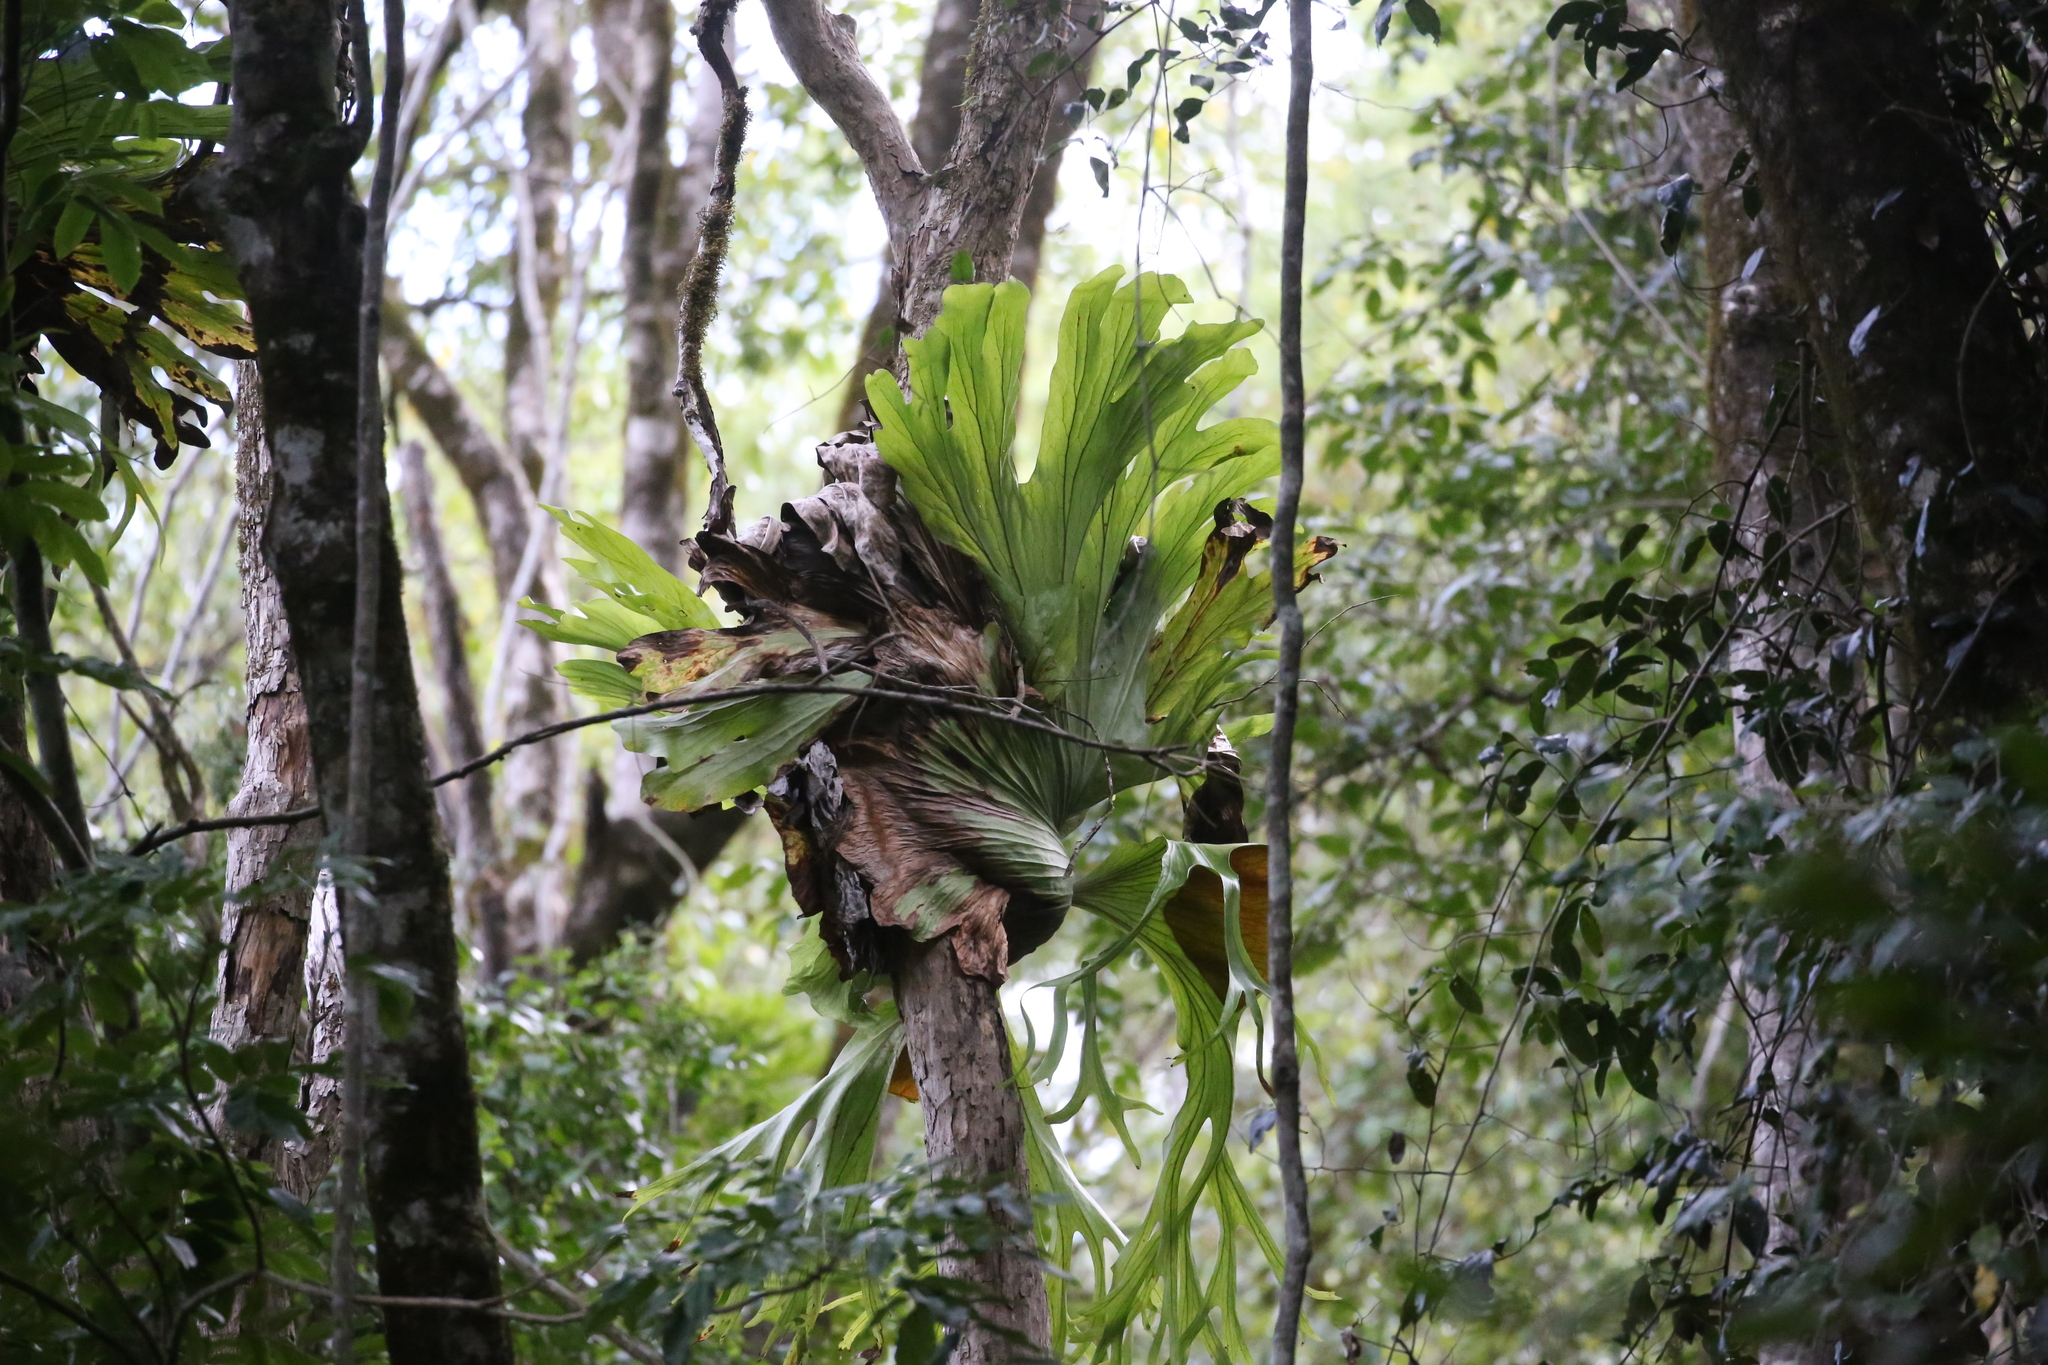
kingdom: Plantae
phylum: Tracheophyta
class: Polypodiopsida
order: Polypodiales
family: Polypodiaceae
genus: Platycerium
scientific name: Platycerium superbum
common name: Staghorn fern
